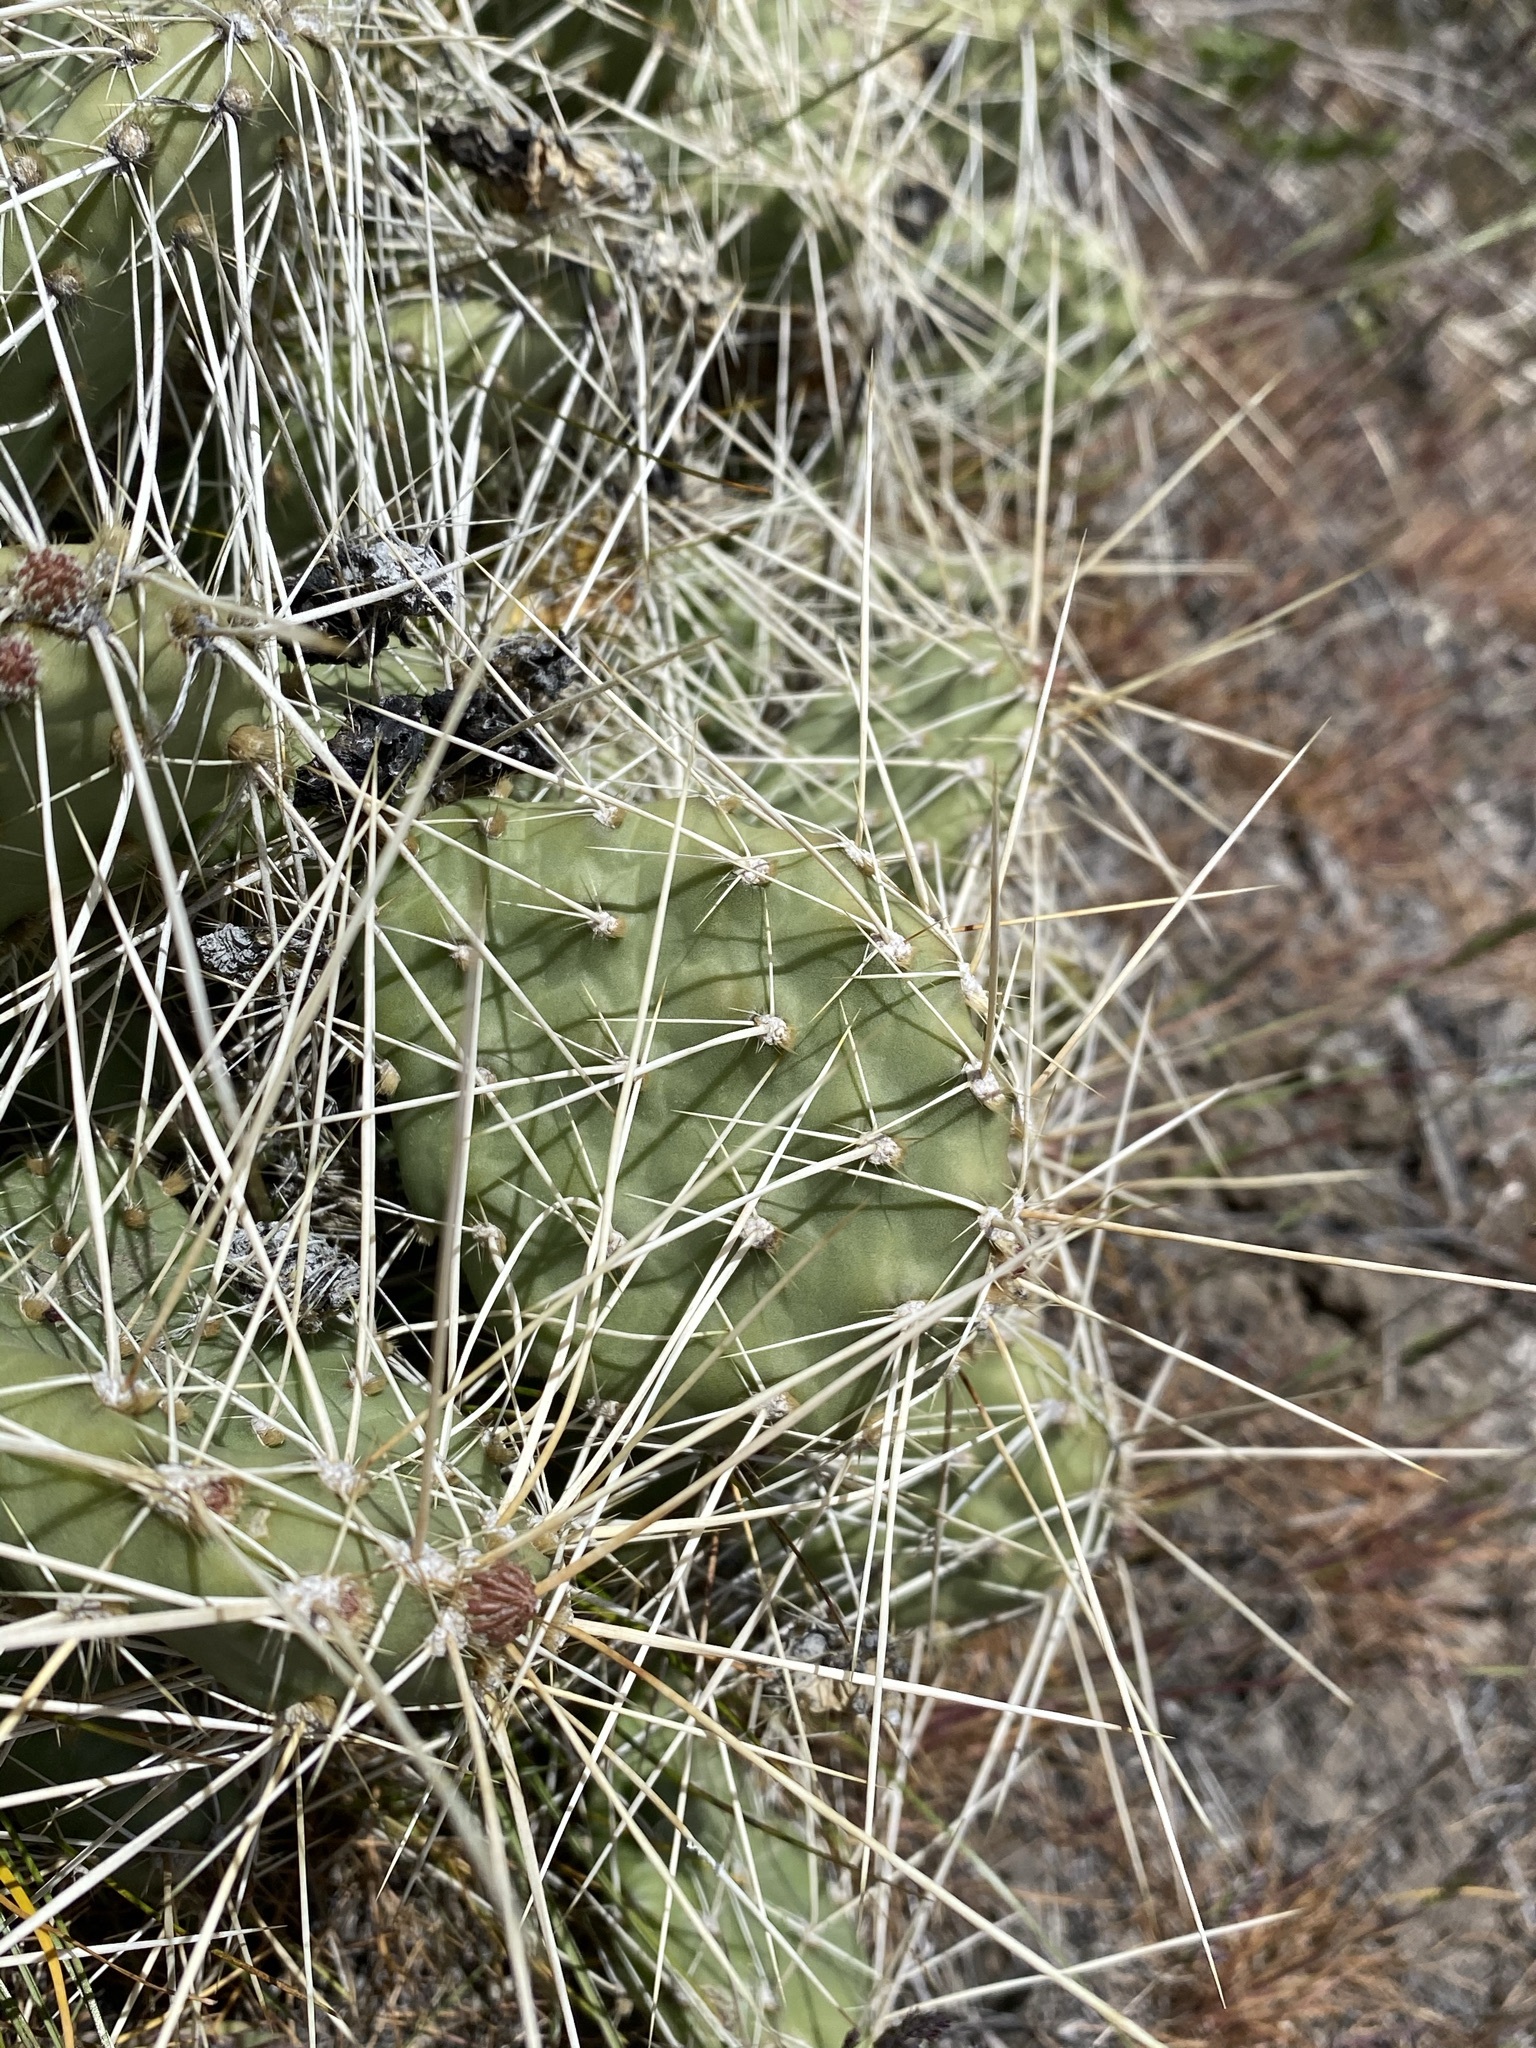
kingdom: Plantae
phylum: Tracheophyta
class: Magnoliopsida
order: Caryophyllales
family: Cactaceae
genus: Opuntia
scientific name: Opuntia columbiana
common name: Columbia prickly-pear
